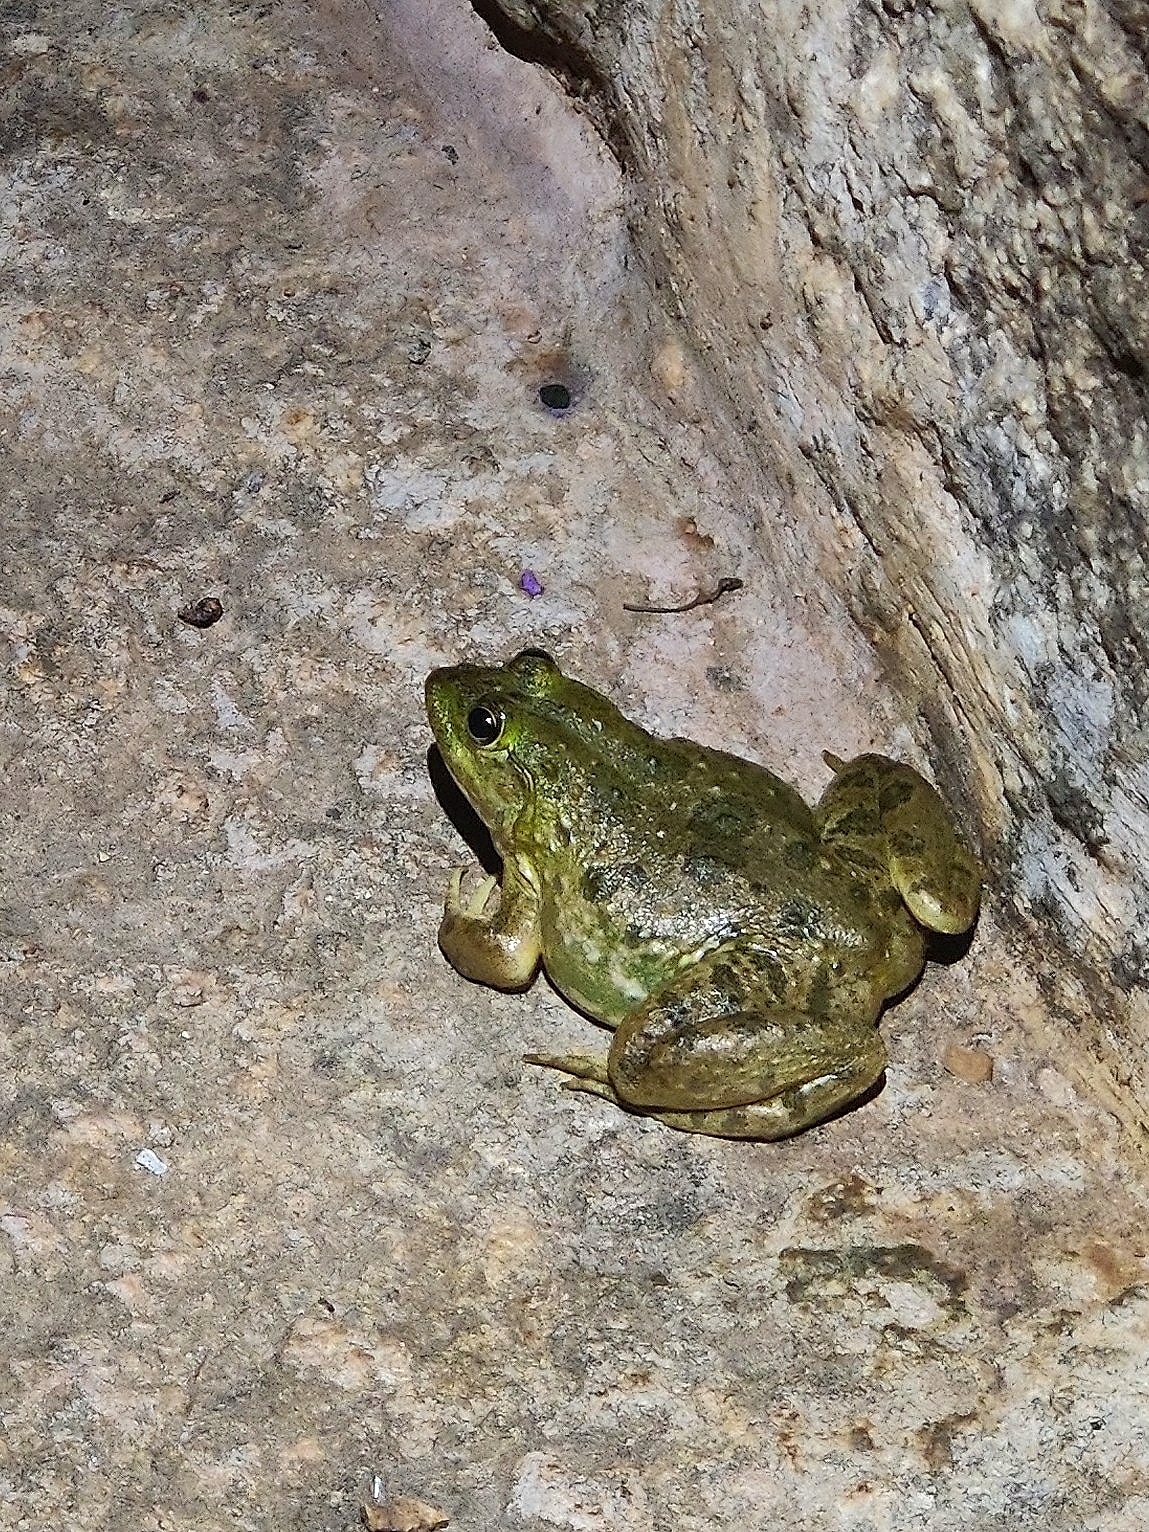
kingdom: Animalia
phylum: Chordata
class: Amphibia
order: Anura
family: Dicroglossidae
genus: Euphlyctis
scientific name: Euphlyctis cyanophlyctis
